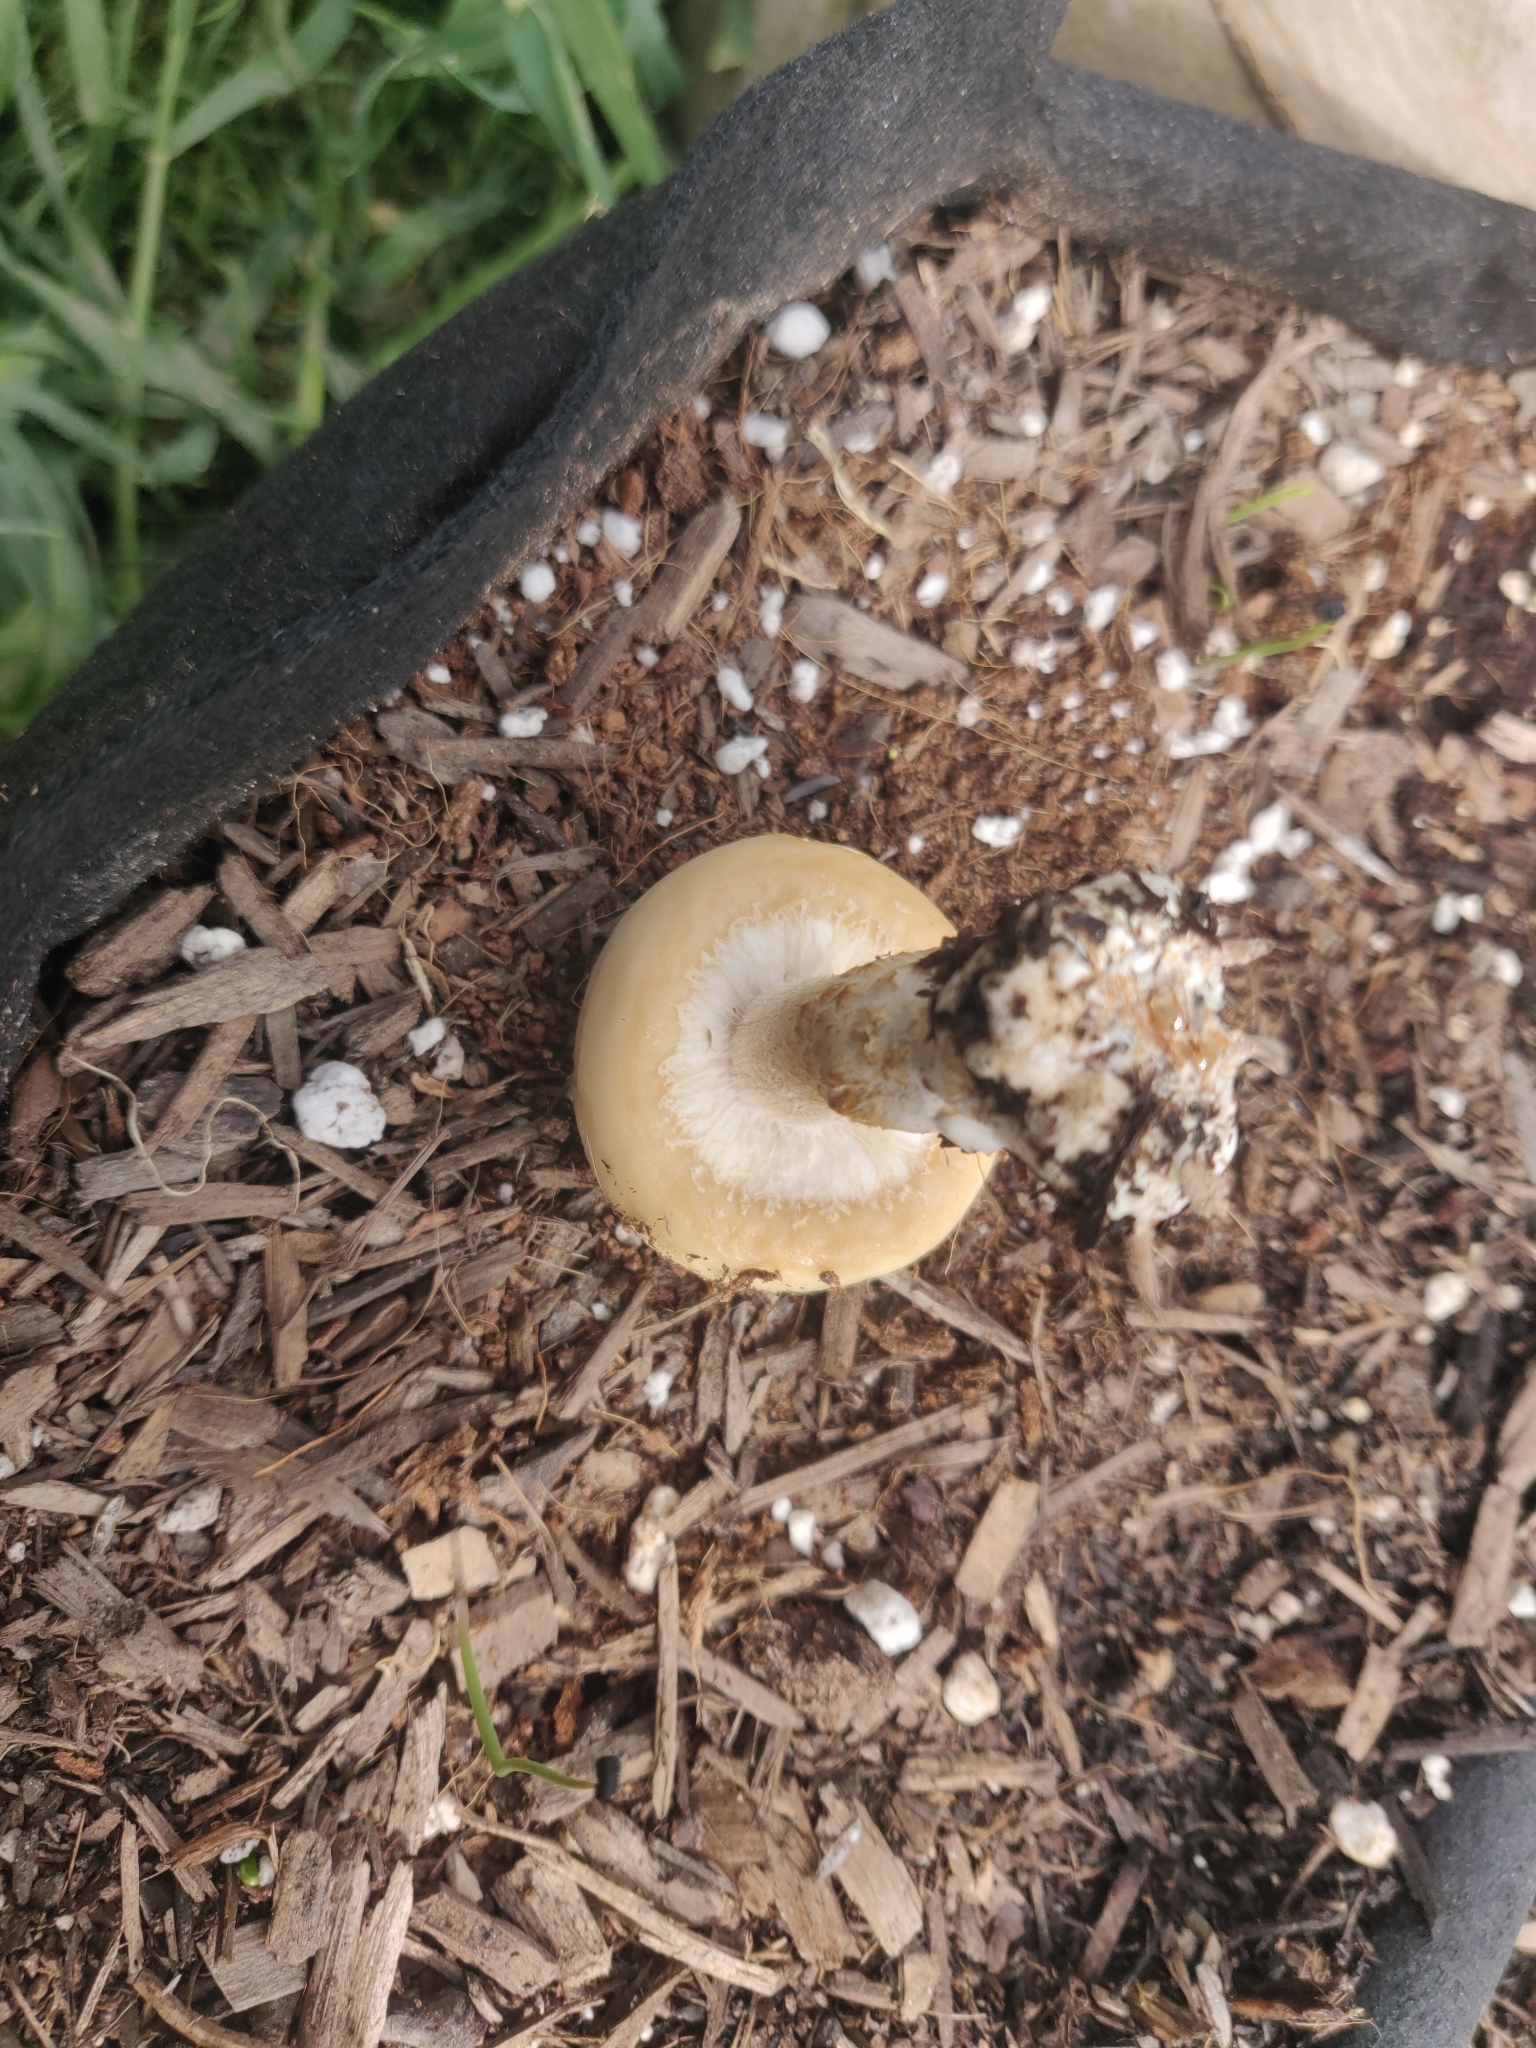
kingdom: Fungi
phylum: Basidiomycota
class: Agaricomycetes
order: Agaricales
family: Strophariaceae
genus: Agrocybe
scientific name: Agrocybe praecox
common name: Spring fieldcap
